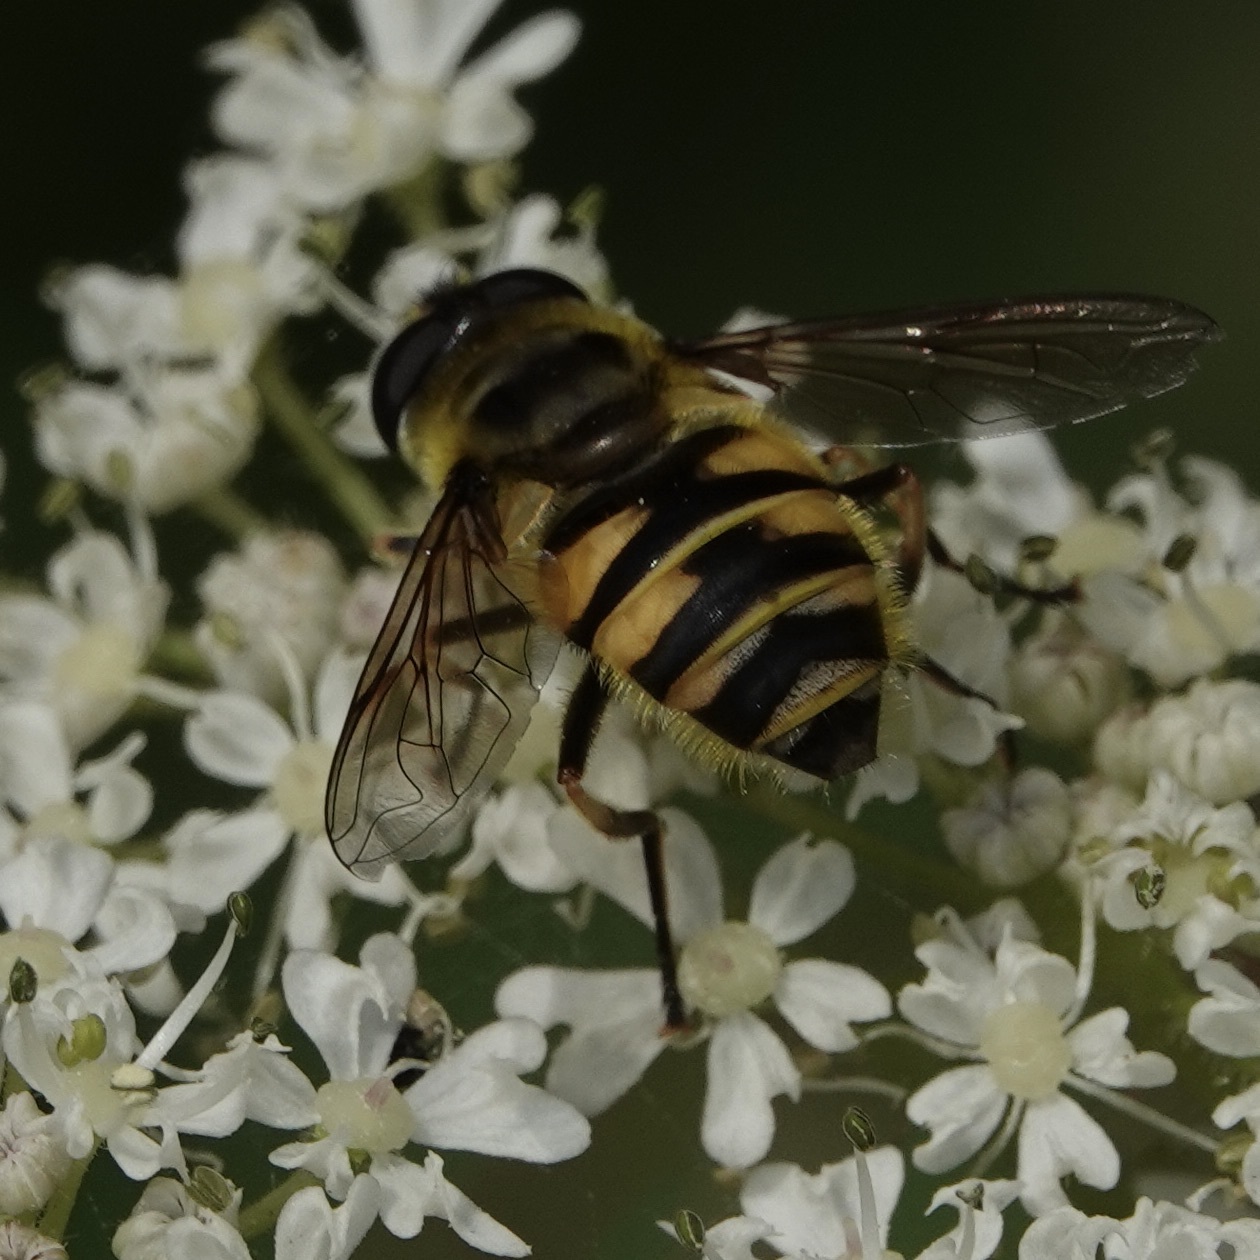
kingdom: Animalia
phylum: Arthropoda
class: Insecta
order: Diptera
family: Syrphidae
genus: Myathropa
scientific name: Myathropa florea
